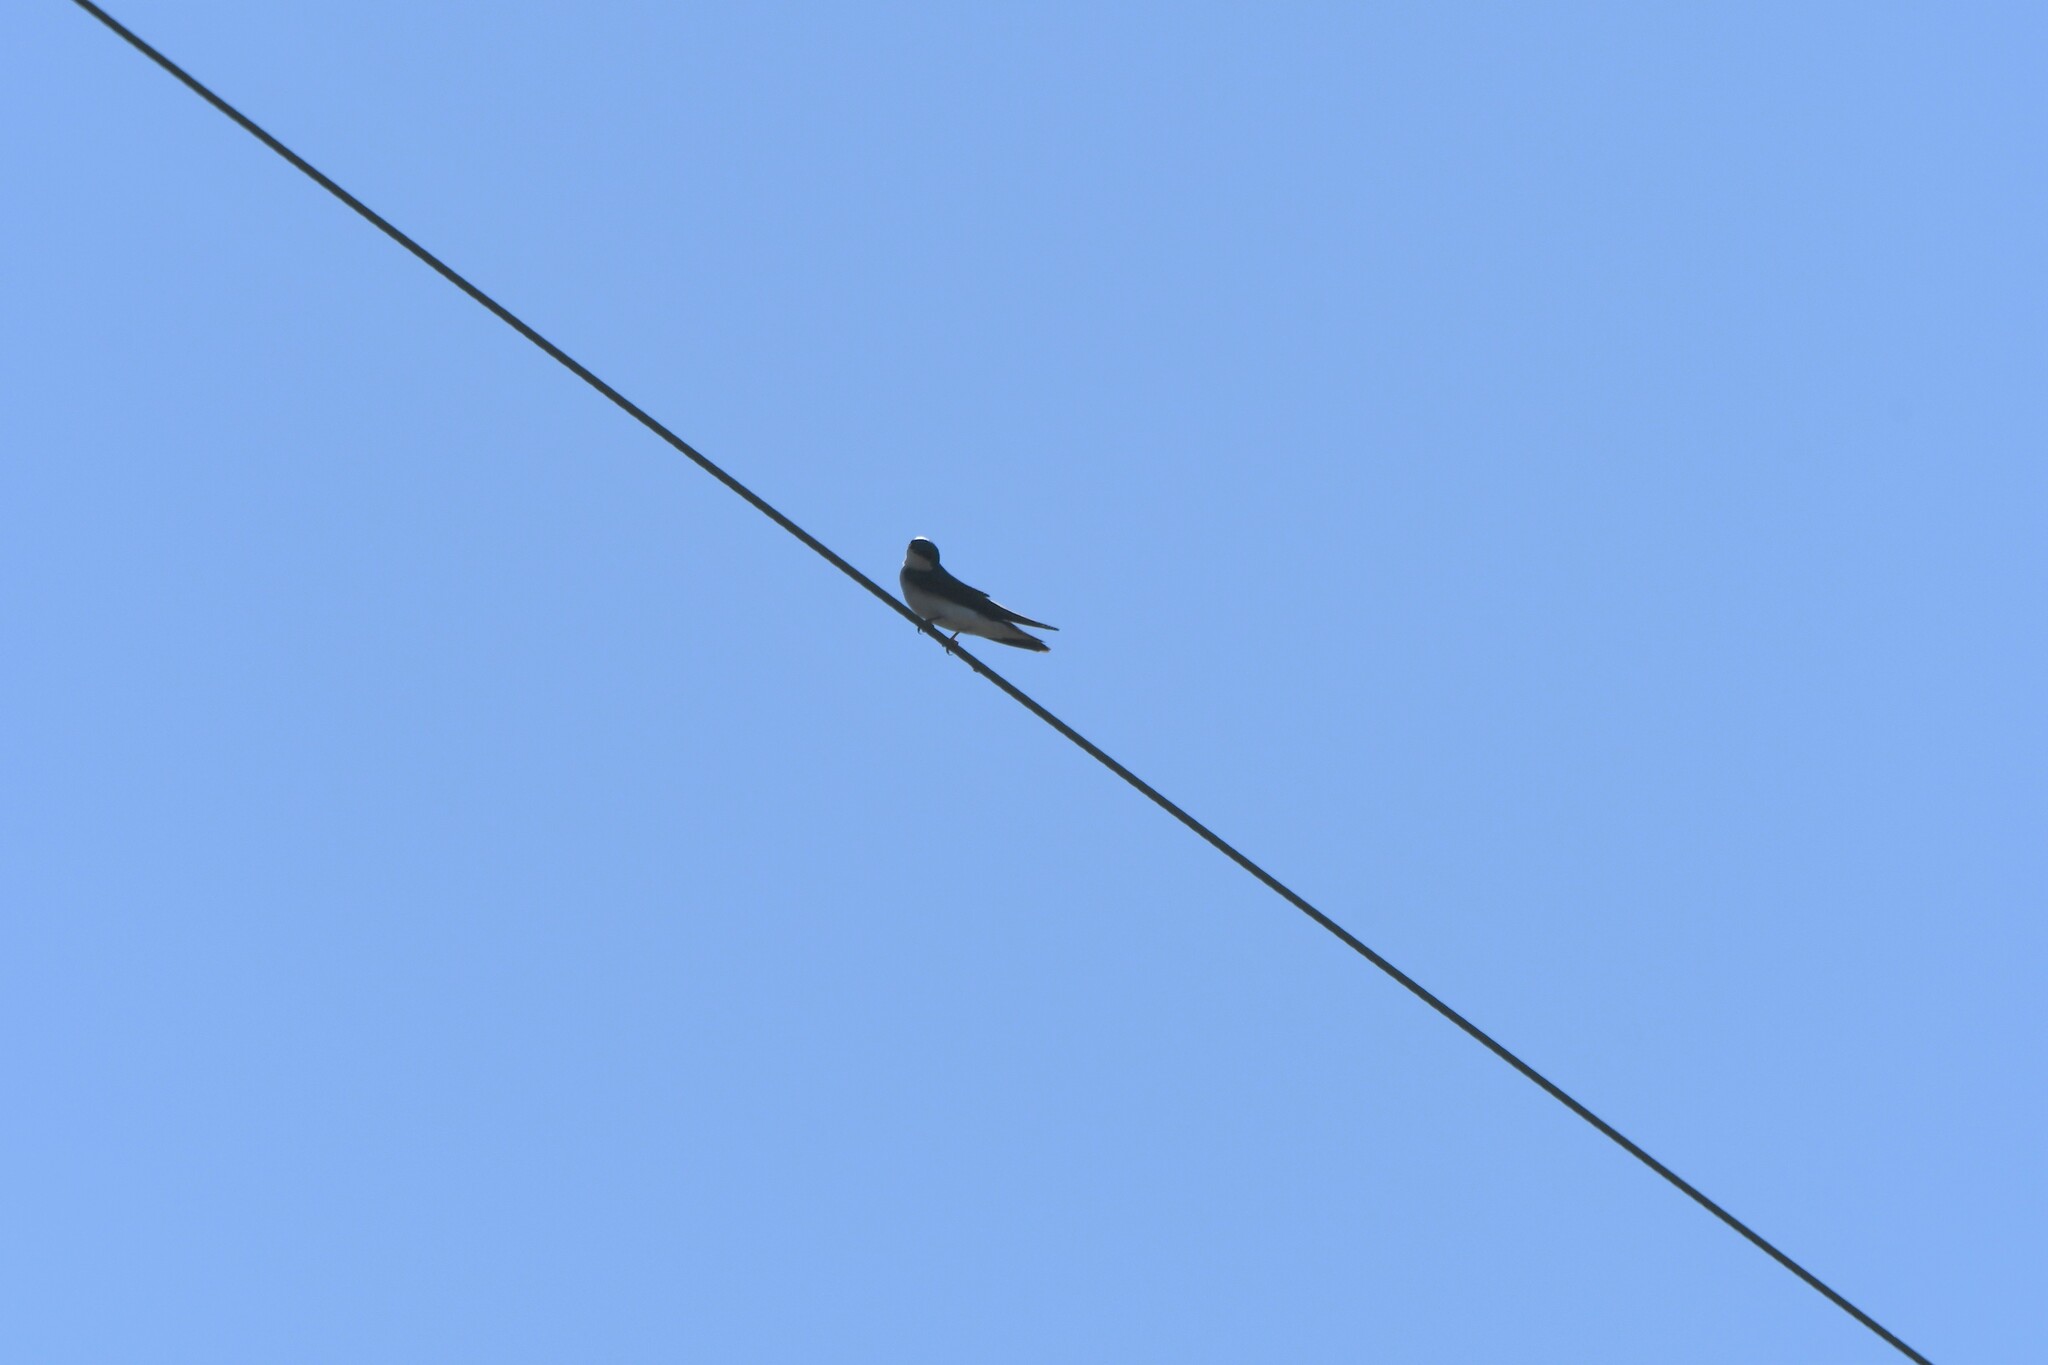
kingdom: Animalia
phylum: Chordata
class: Aves
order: Passeriformes
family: Hirundinidae
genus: Tachycineta
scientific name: Tachycineta bicolor
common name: Tree swallow
